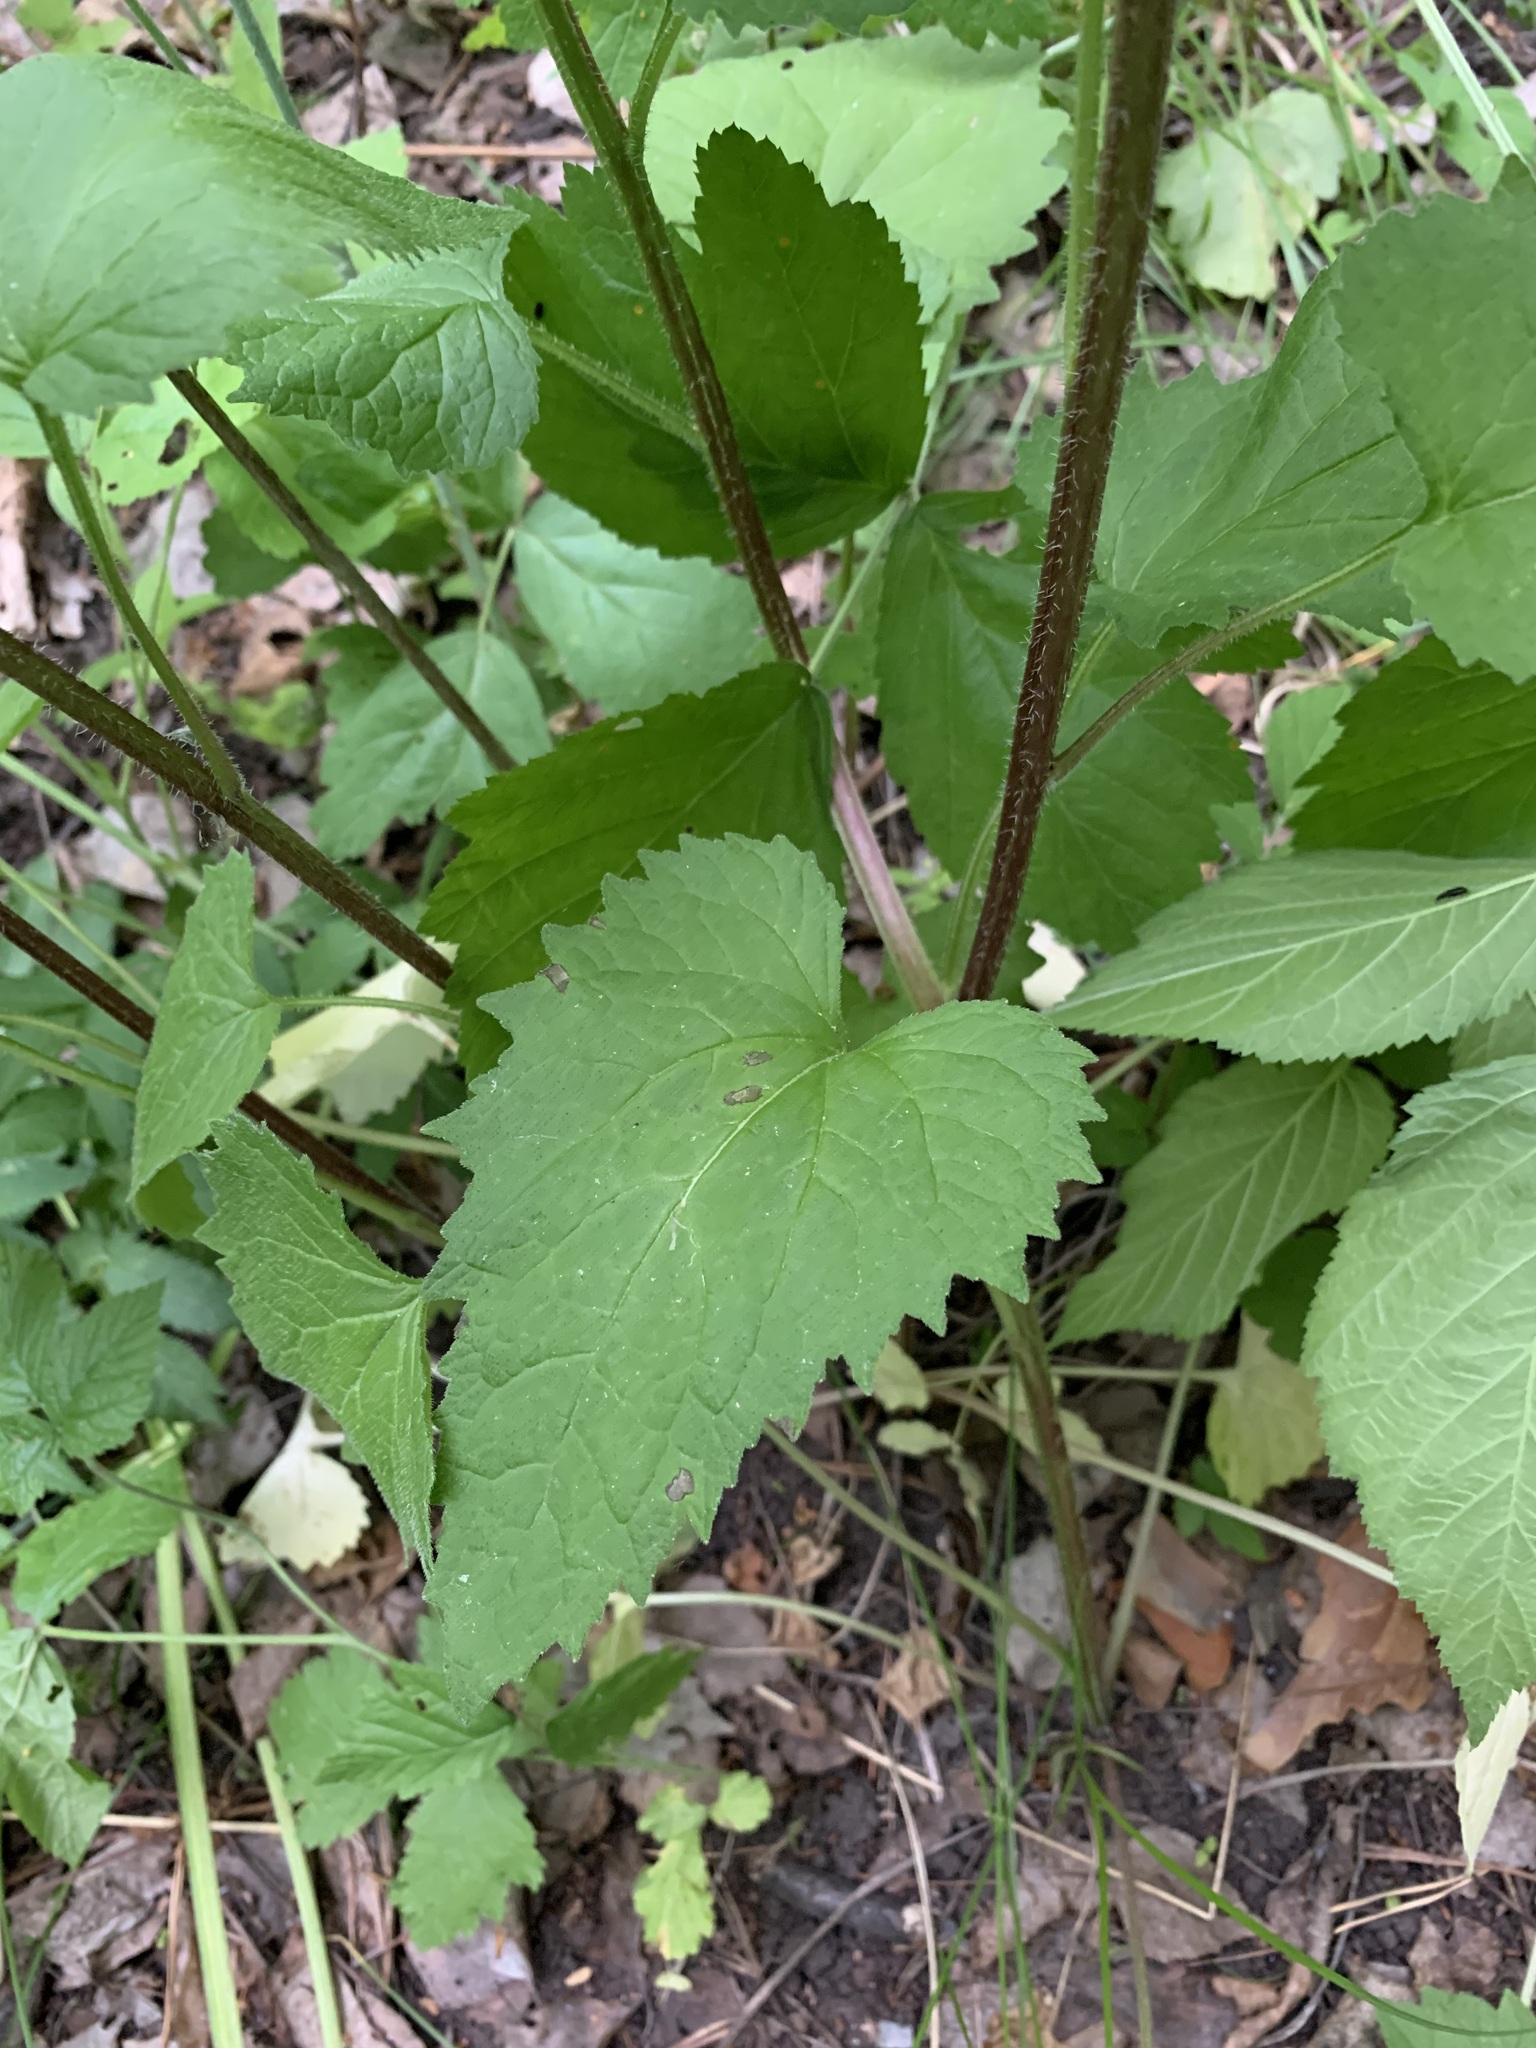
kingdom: Plantae
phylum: Tracheophyta
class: Magnoliopsida
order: Asterales
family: Campanulaceae
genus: Campanula
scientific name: Campanula trachelium
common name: Nettle-leaved bellflower
